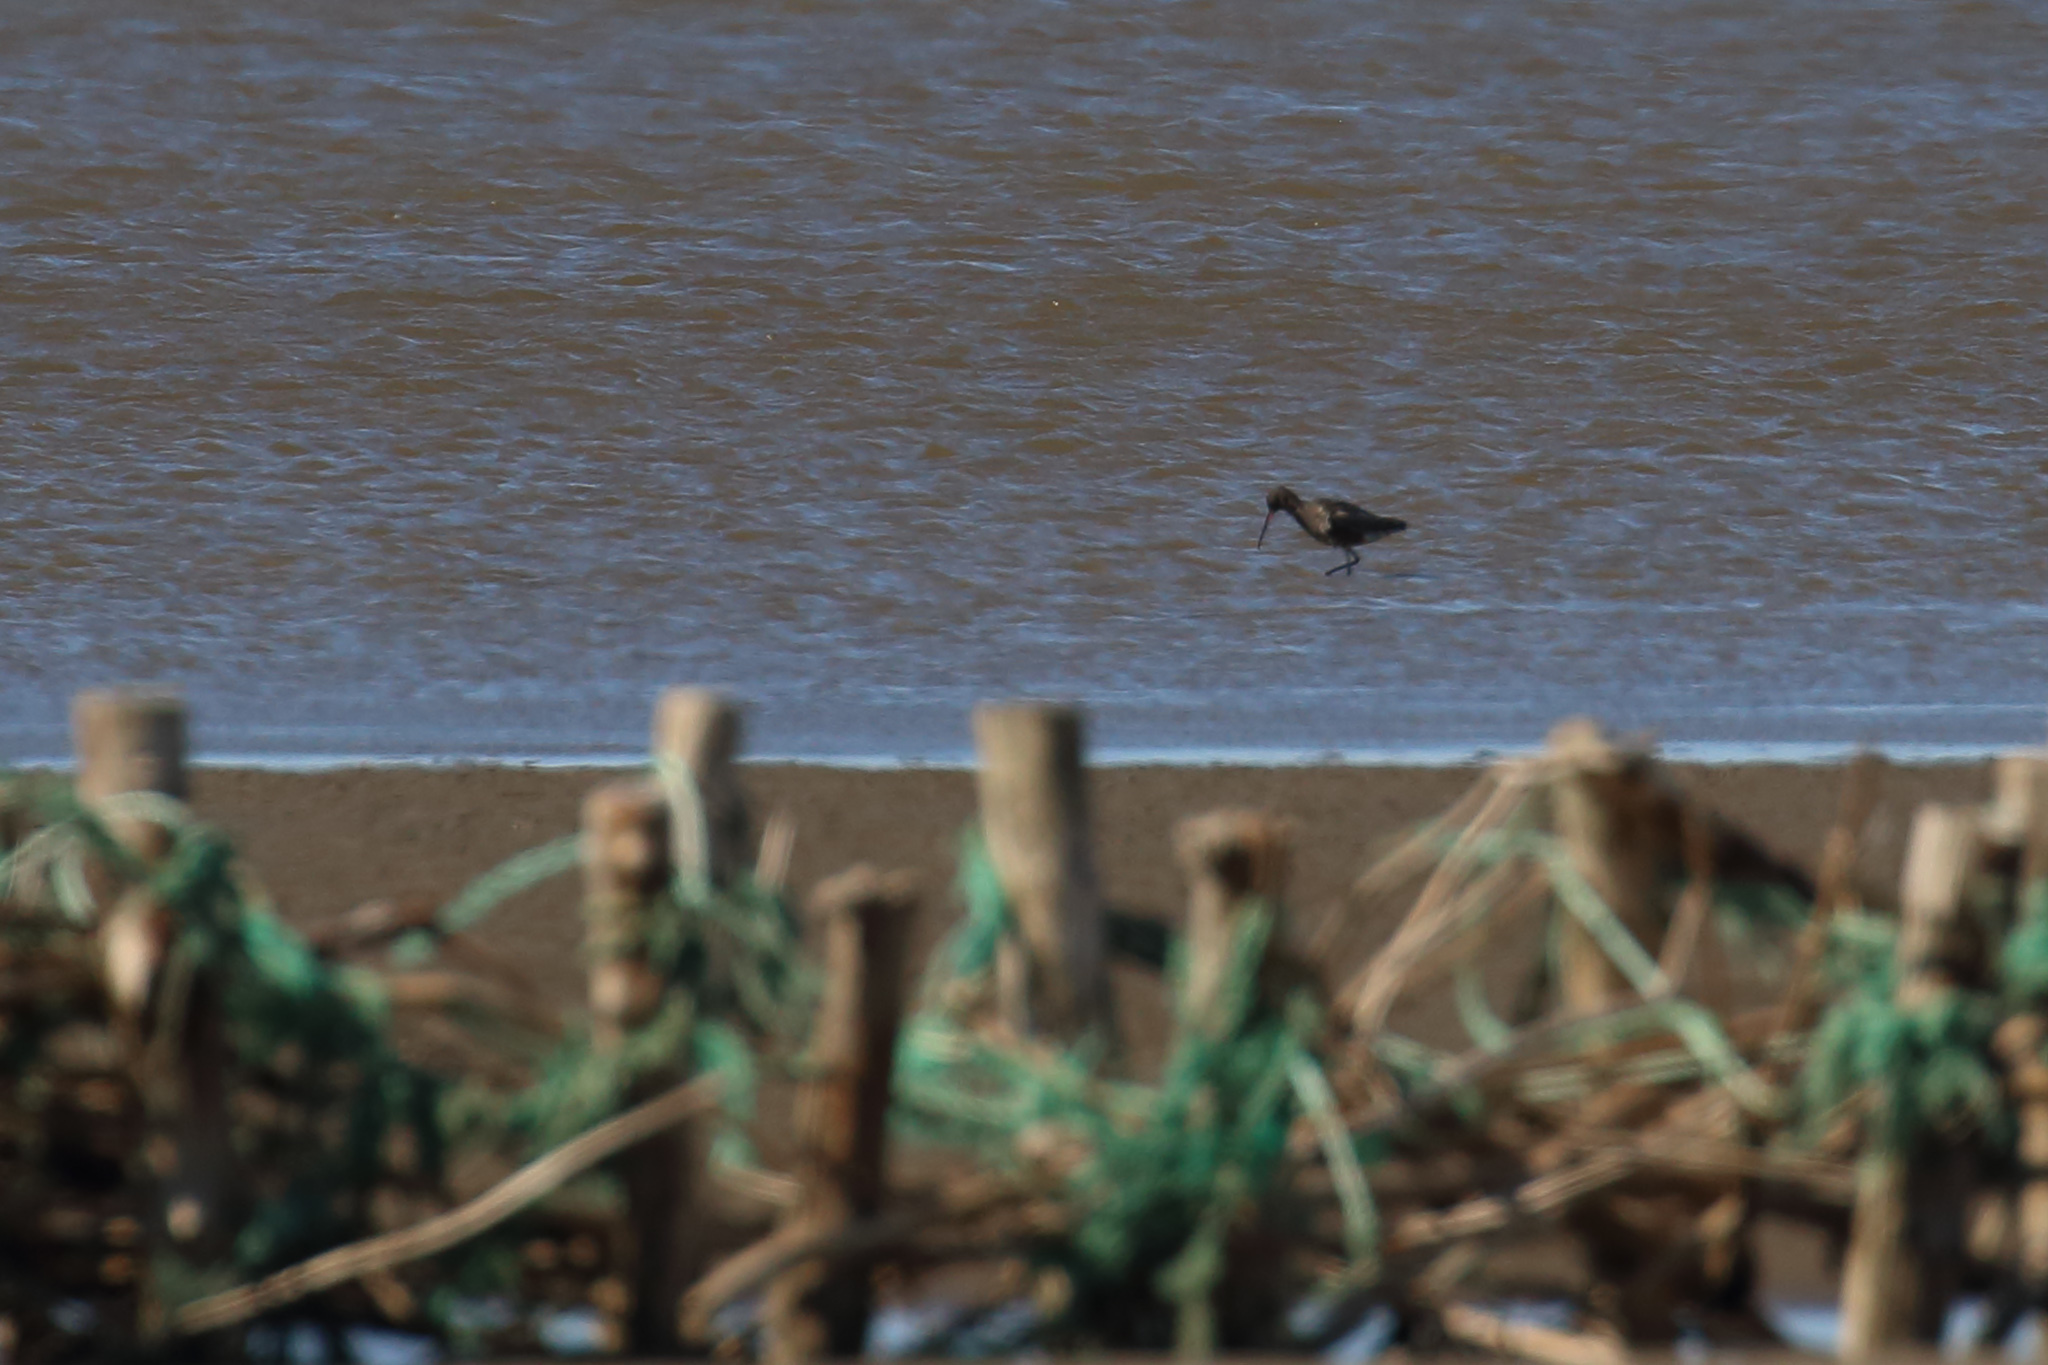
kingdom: Animalia
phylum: Chordata
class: Aves
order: Charadriiformes
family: Scolopacidae
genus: Tringa
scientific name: Tringa erythropus
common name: Spotted redshank
